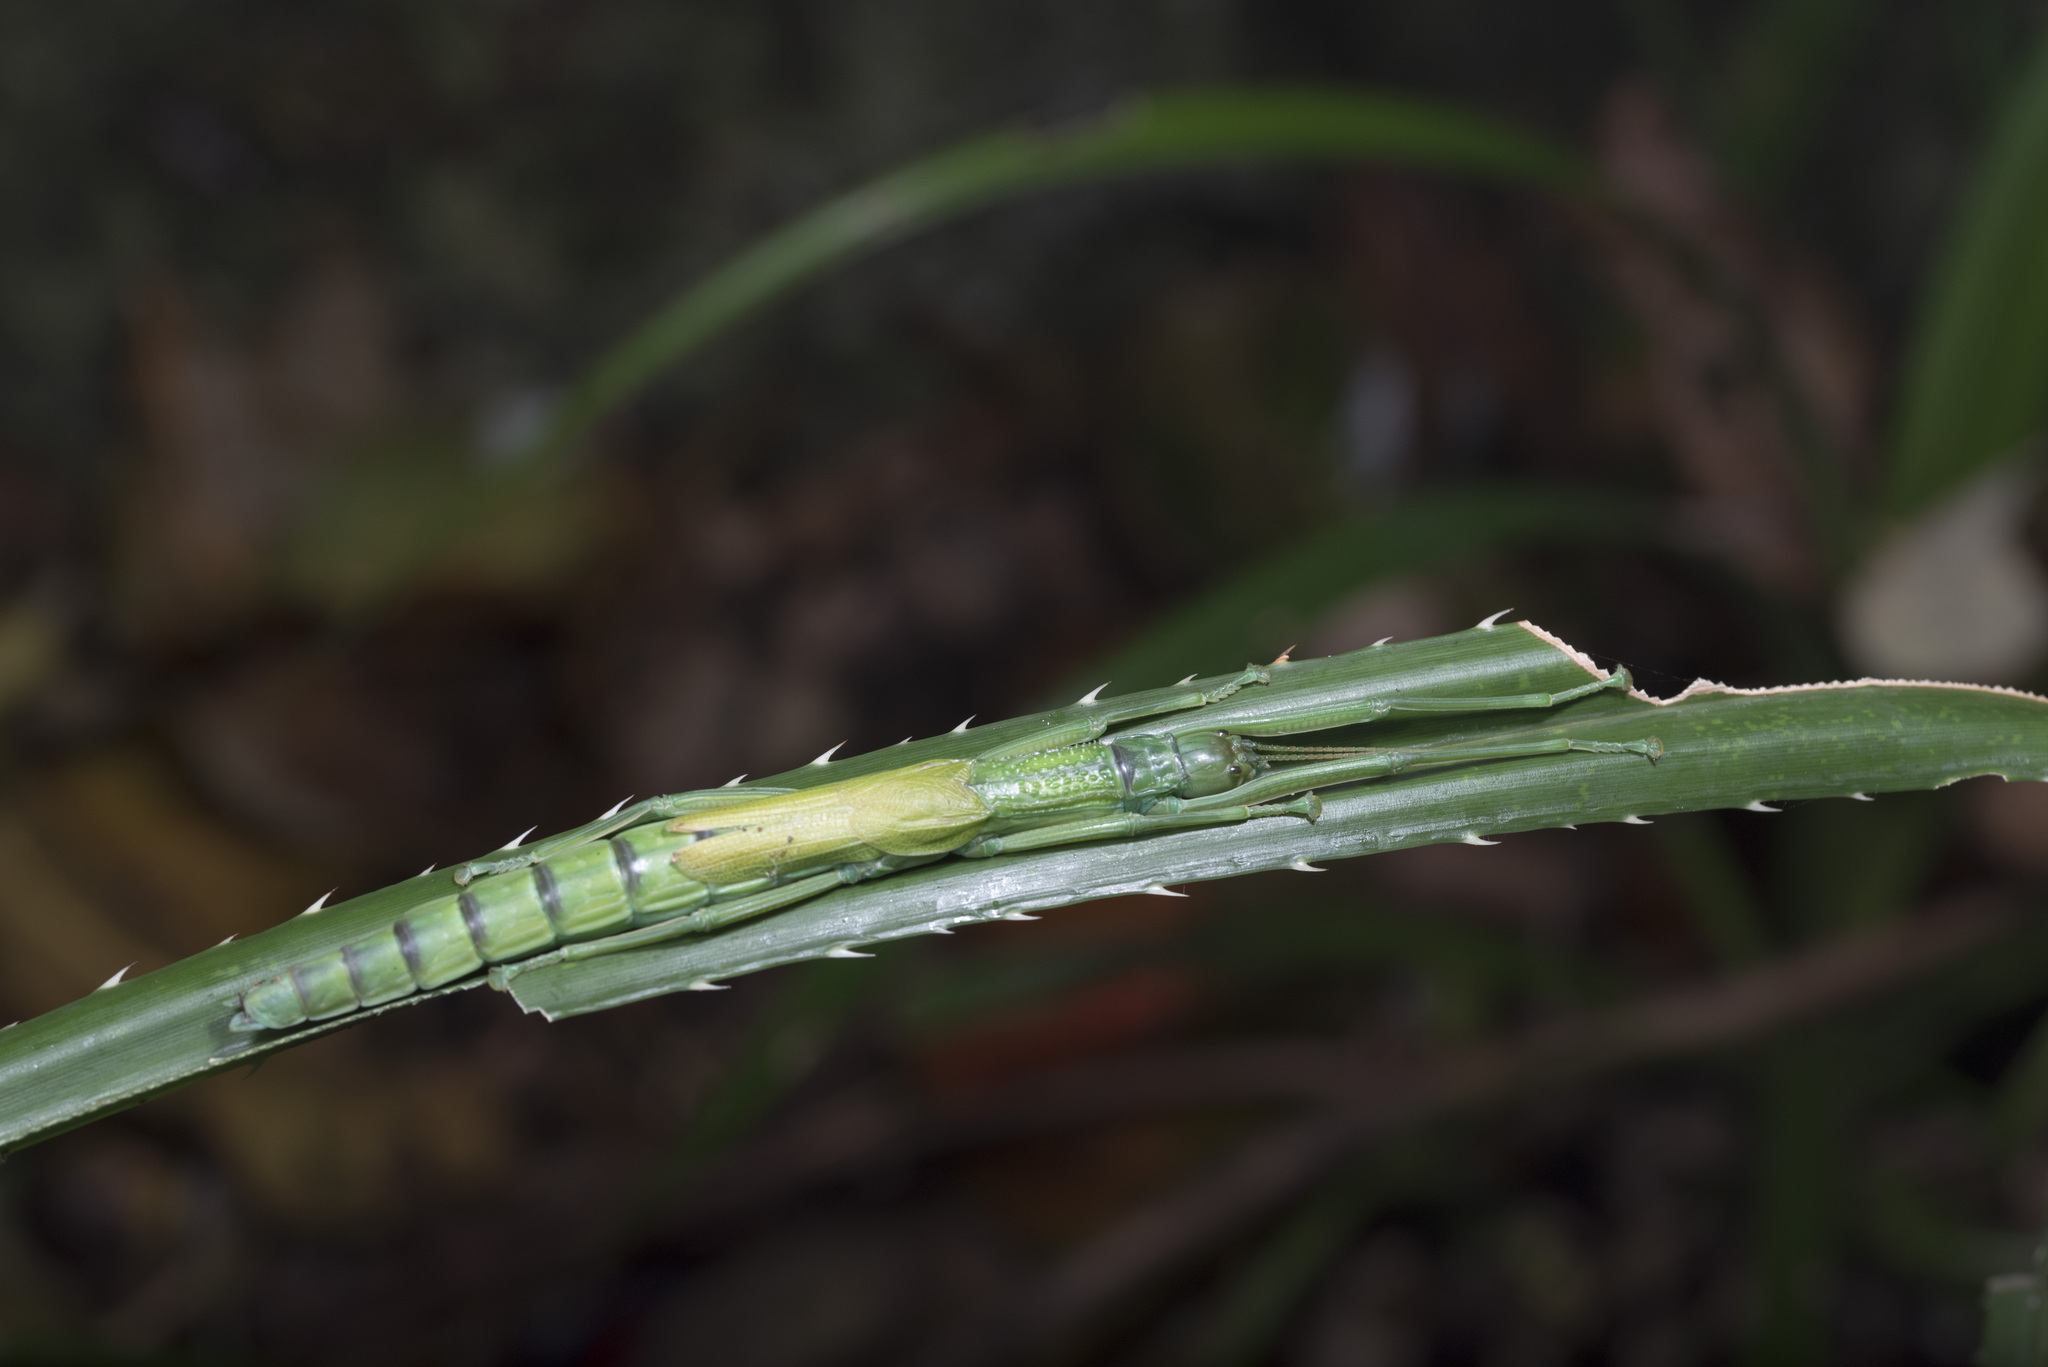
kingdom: Animalia
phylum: Arthropoda
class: Insecta
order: Phasmida
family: Phasmatidae
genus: Megacrania
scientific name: Megacrania tsudai
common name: Tsuda's giant stick-insect
